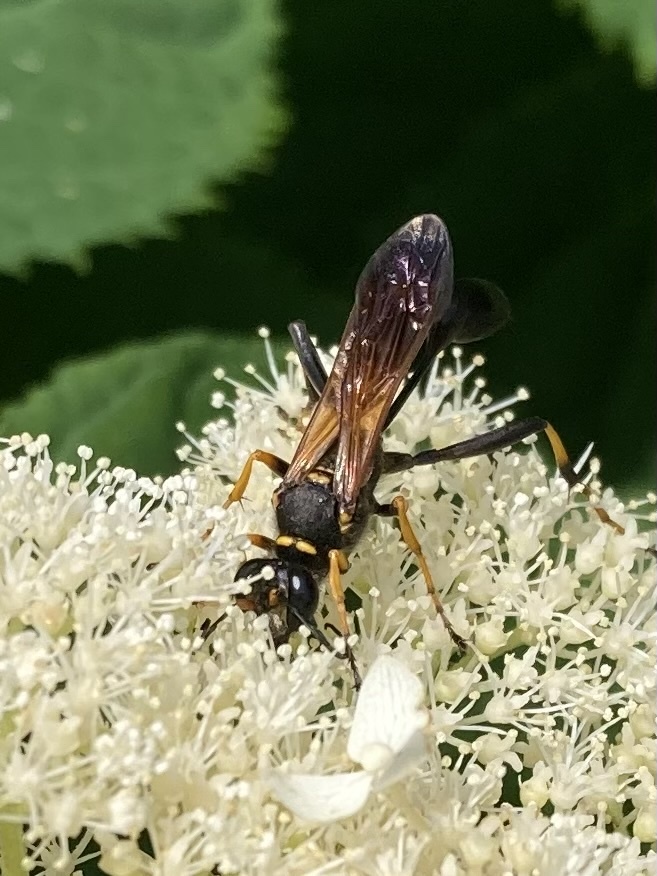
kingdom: Animalia
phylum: Arthropoda
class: Insecta
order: Hymenoptera
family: Sphecidae
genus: Sceliphron
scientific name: Sceliphron caementarium
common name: Mud dauber
